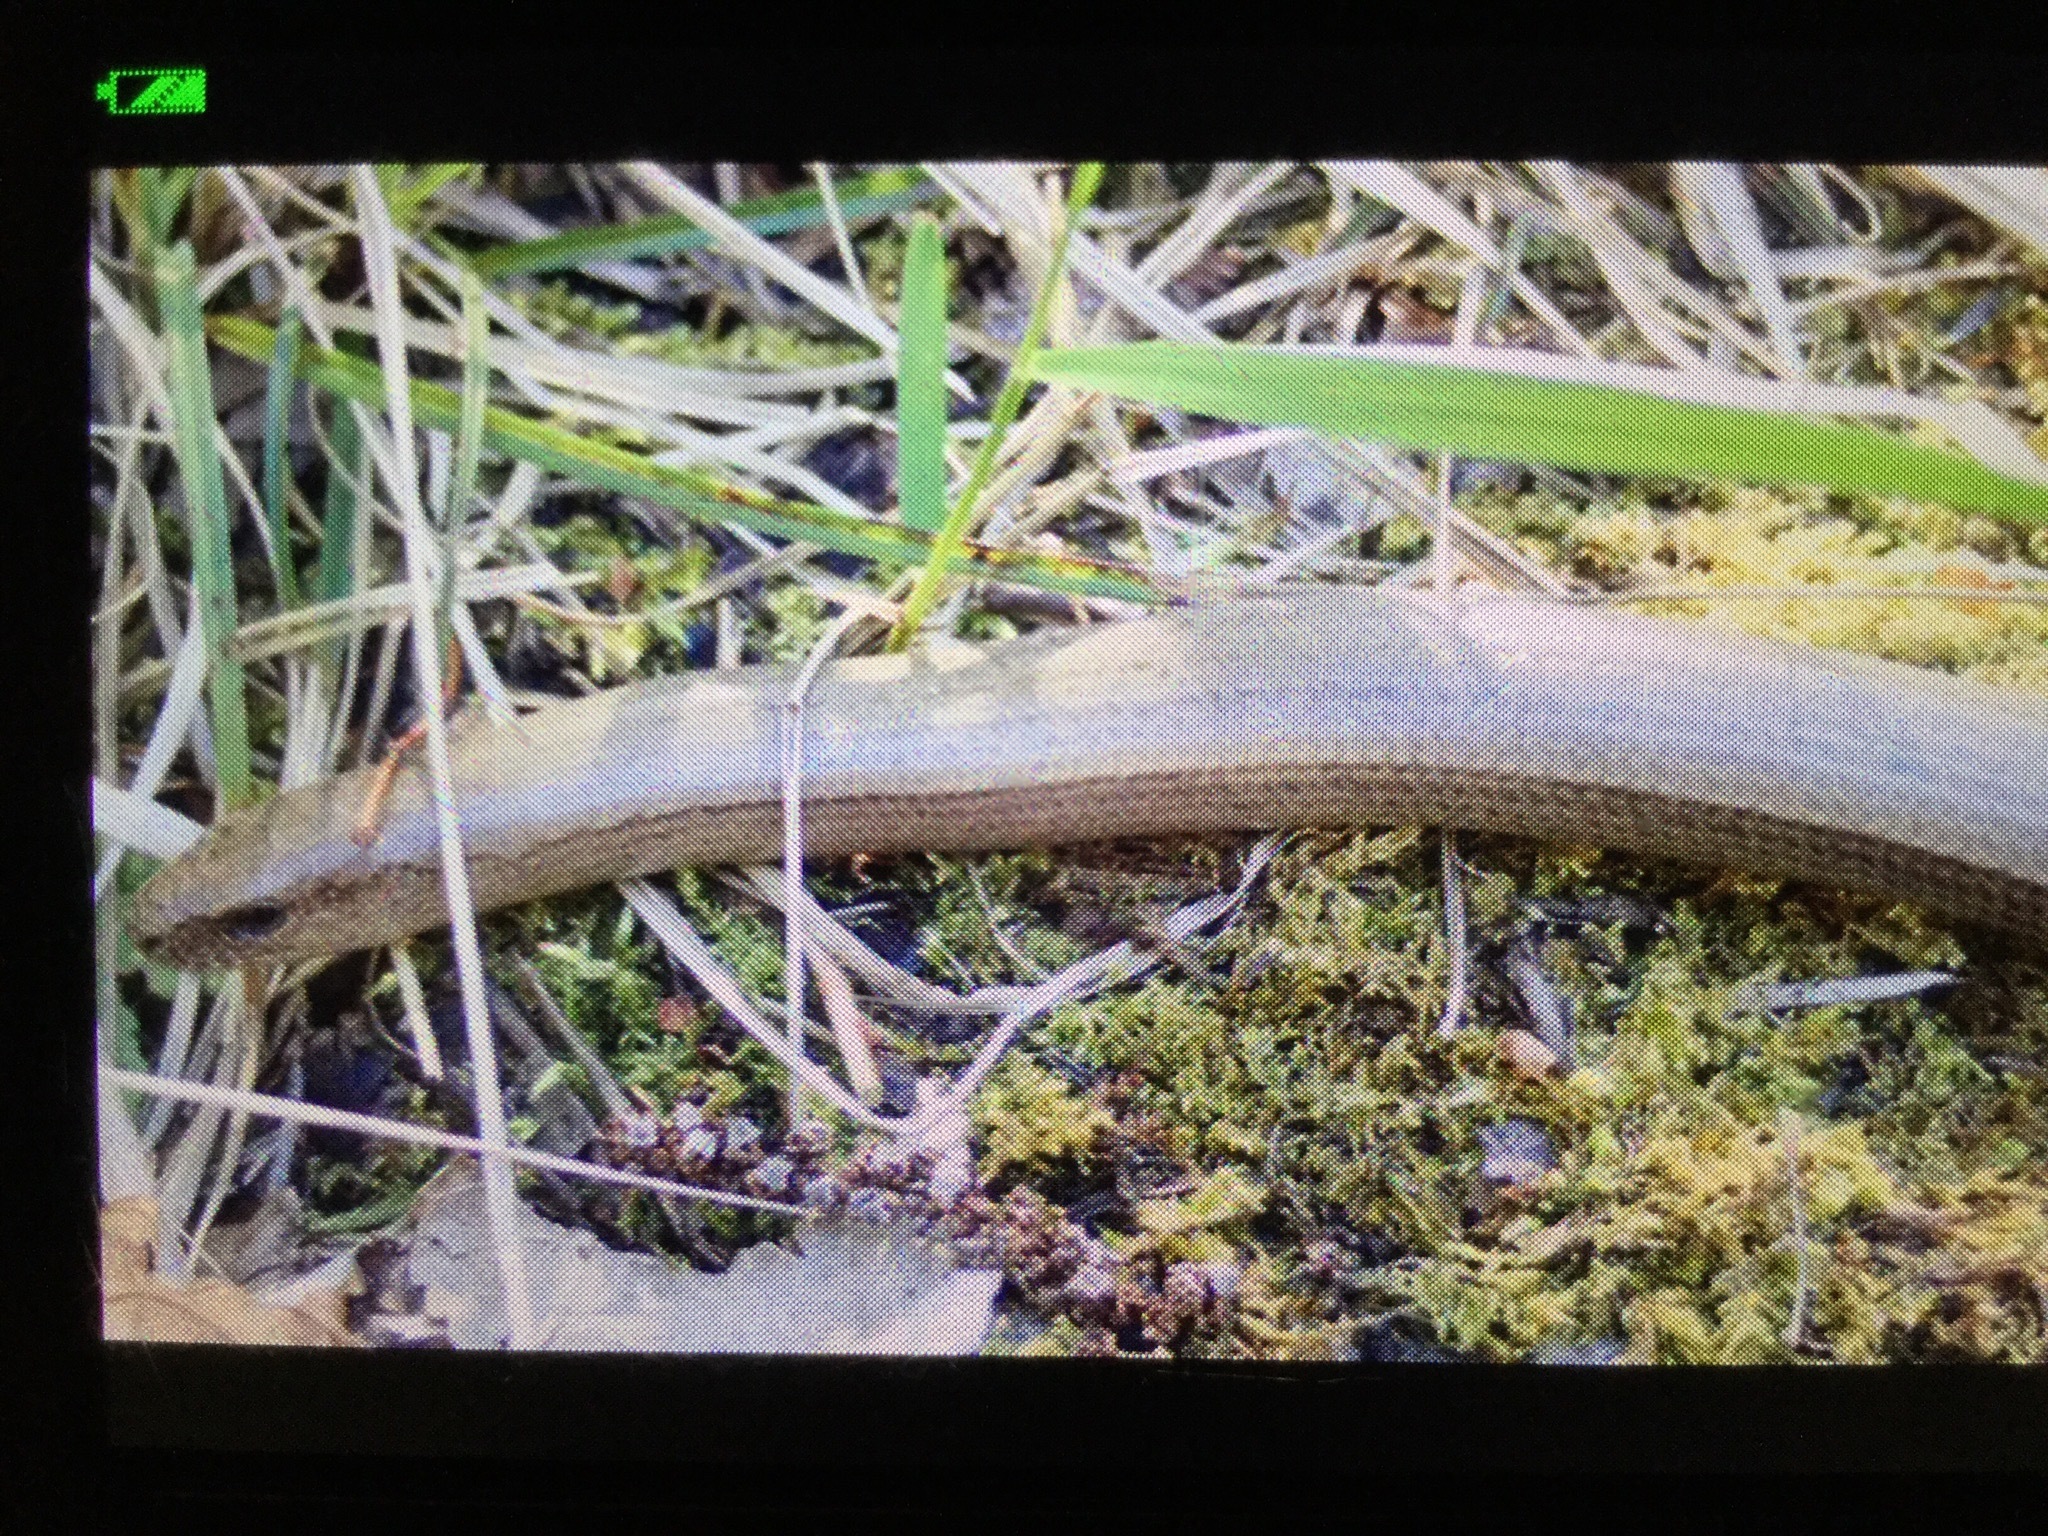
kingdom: Animalia
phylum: Chordata
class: Squamata
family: Anguidae
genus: Anguis
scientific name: Anguis fragilis
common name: Slow worm
